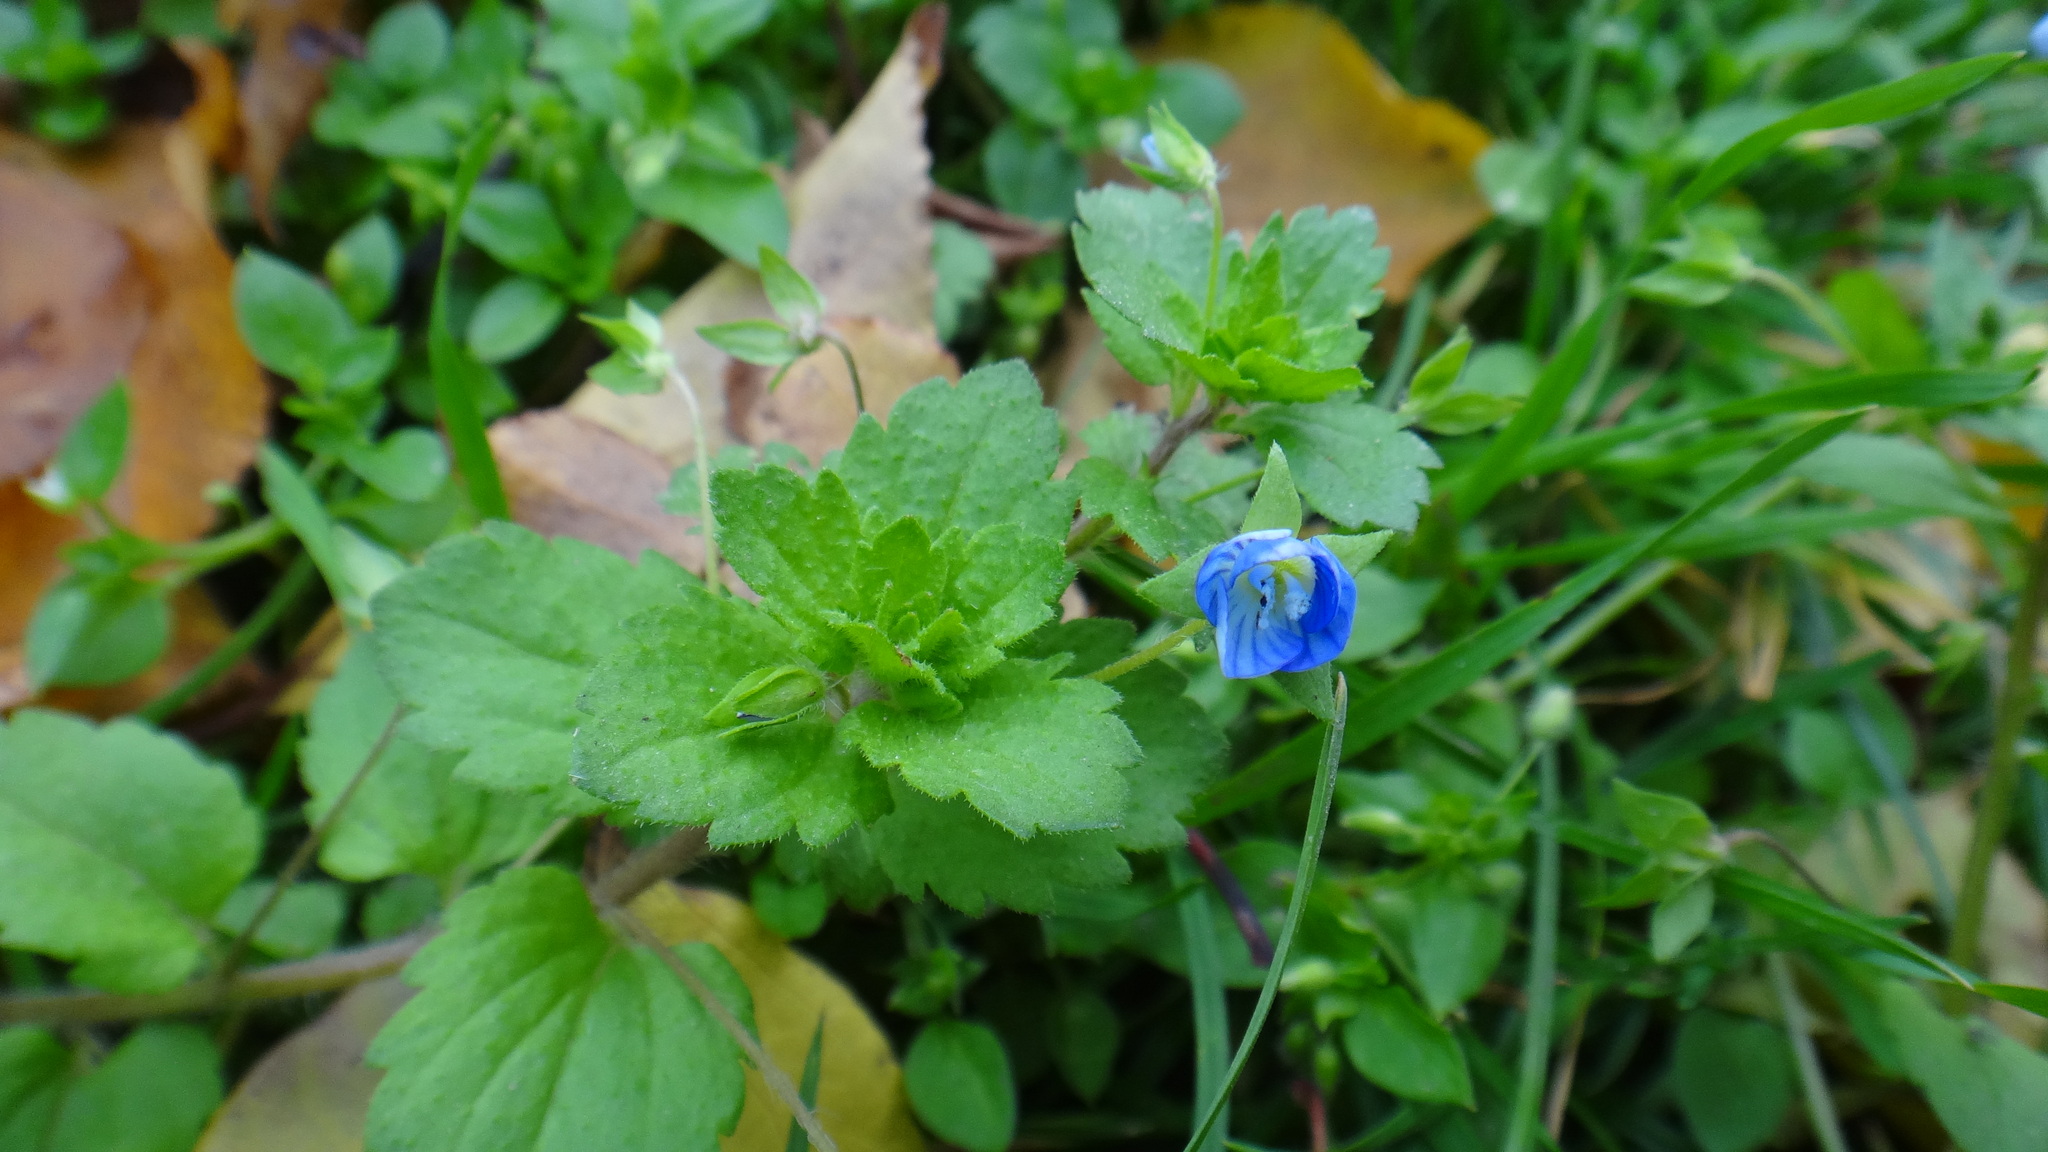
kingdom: Plantae
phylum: Tracheophyta
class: Magnoliopsida
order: Lamiales
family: Plantaginaceae
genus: Veronica
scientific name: Veronica persica
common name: Common field-speedwell
